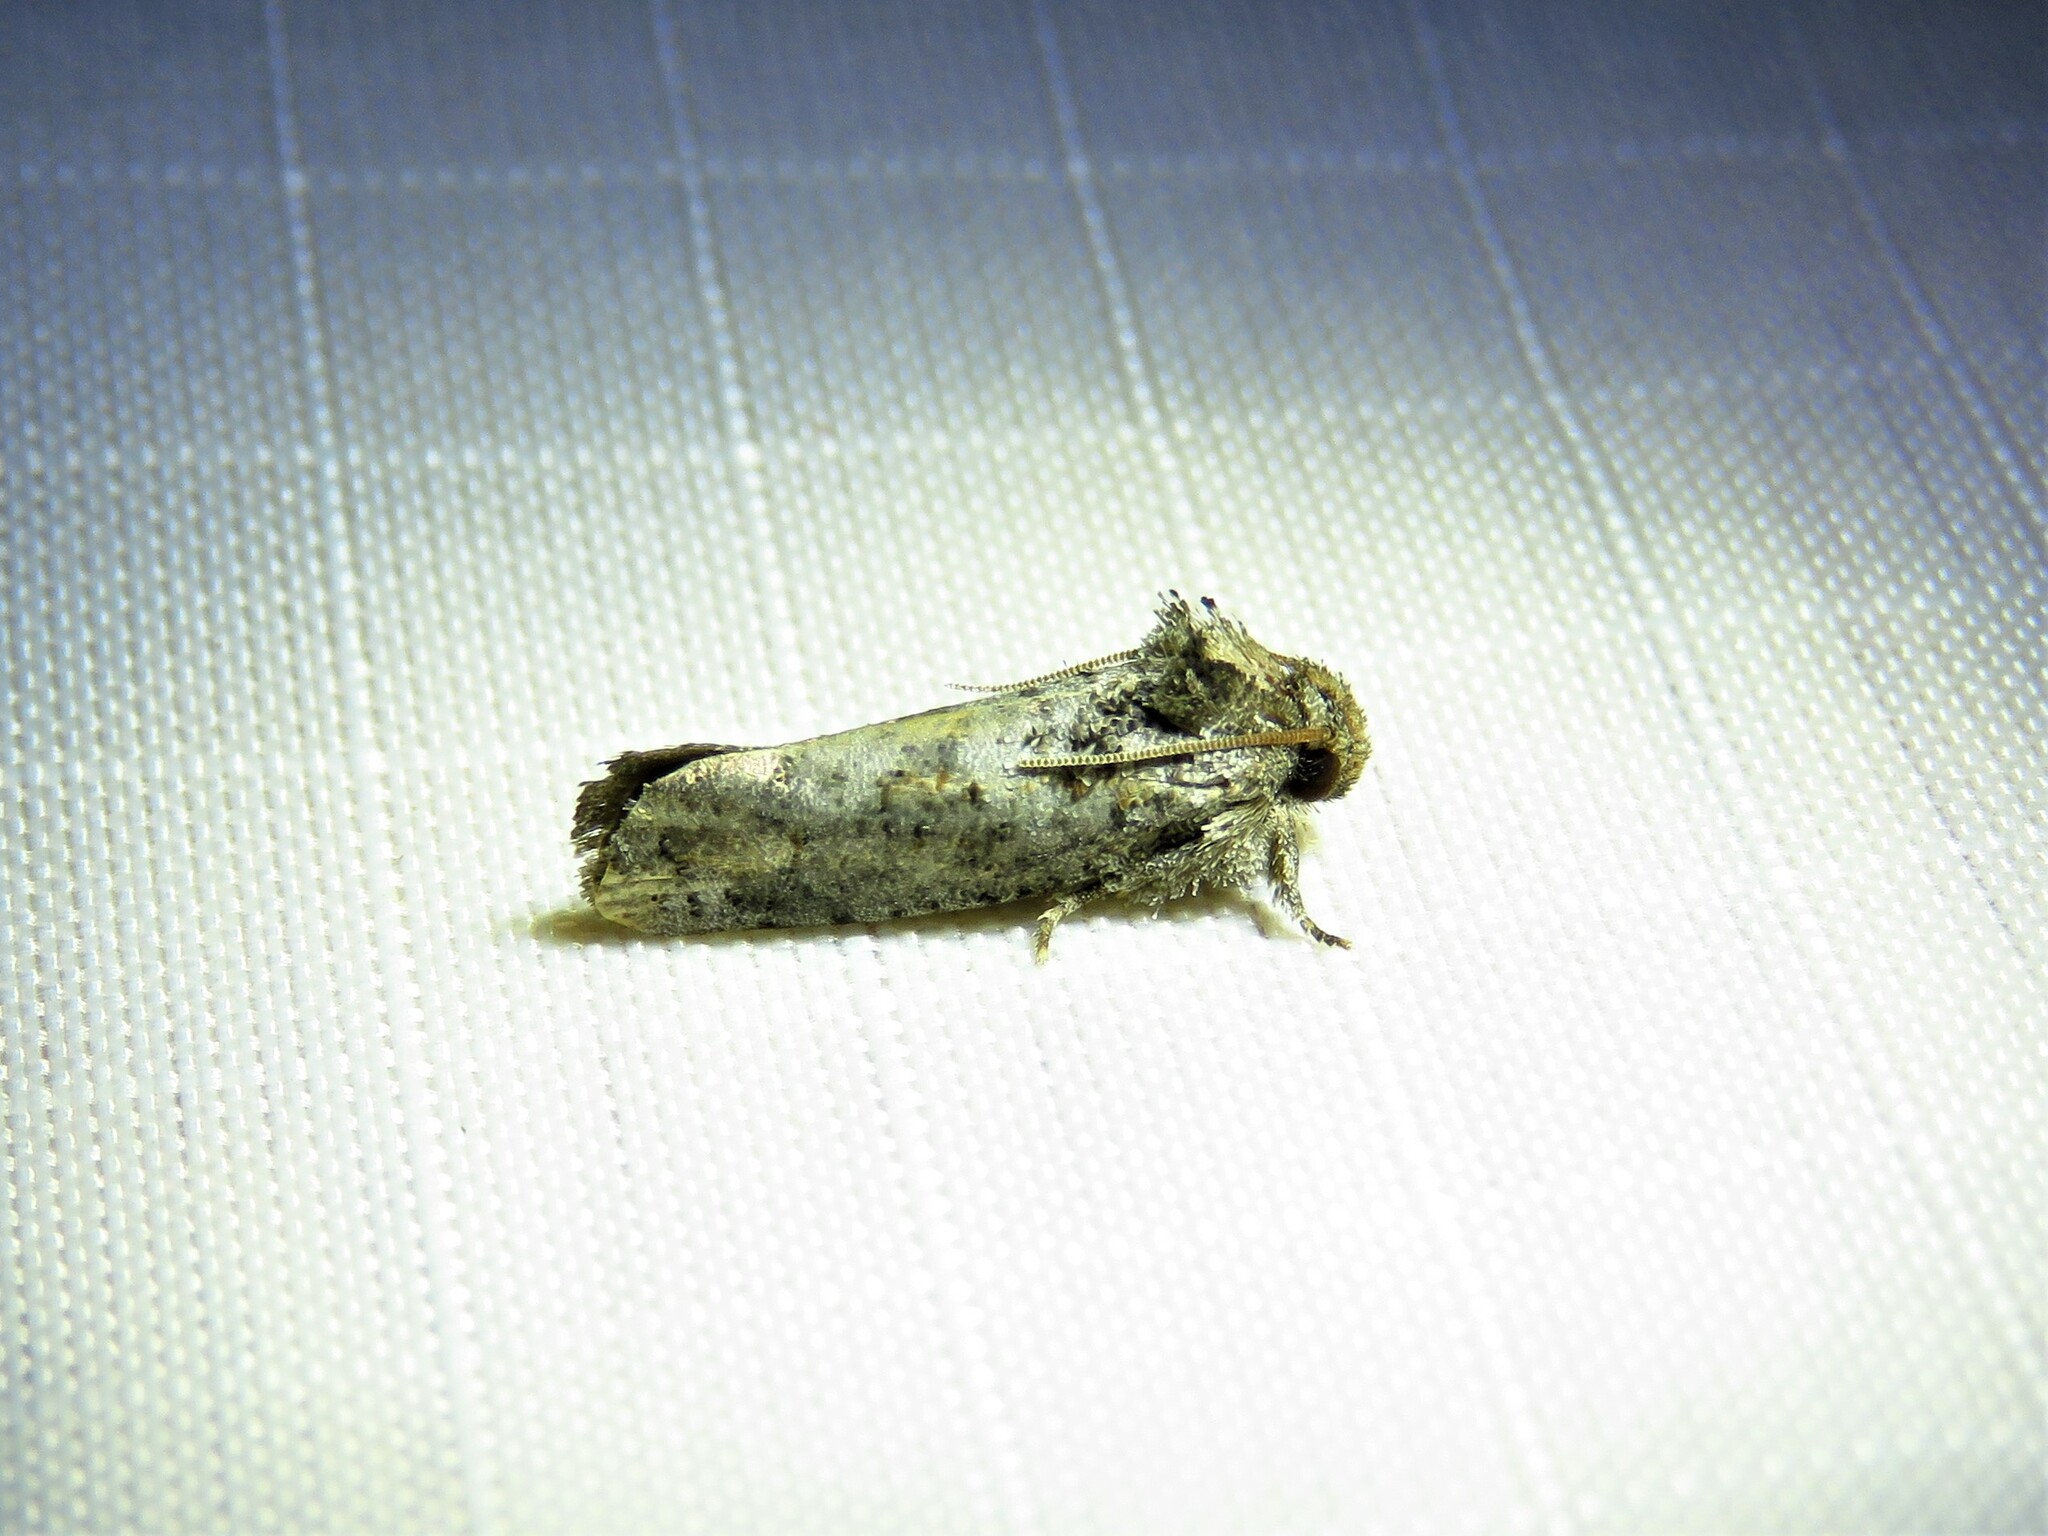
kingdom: Animalia
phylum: Arthropoda
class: Insecta
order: Lepidoptera
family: Tineidae
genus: Acrolophus
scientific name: Acrolophus piger
